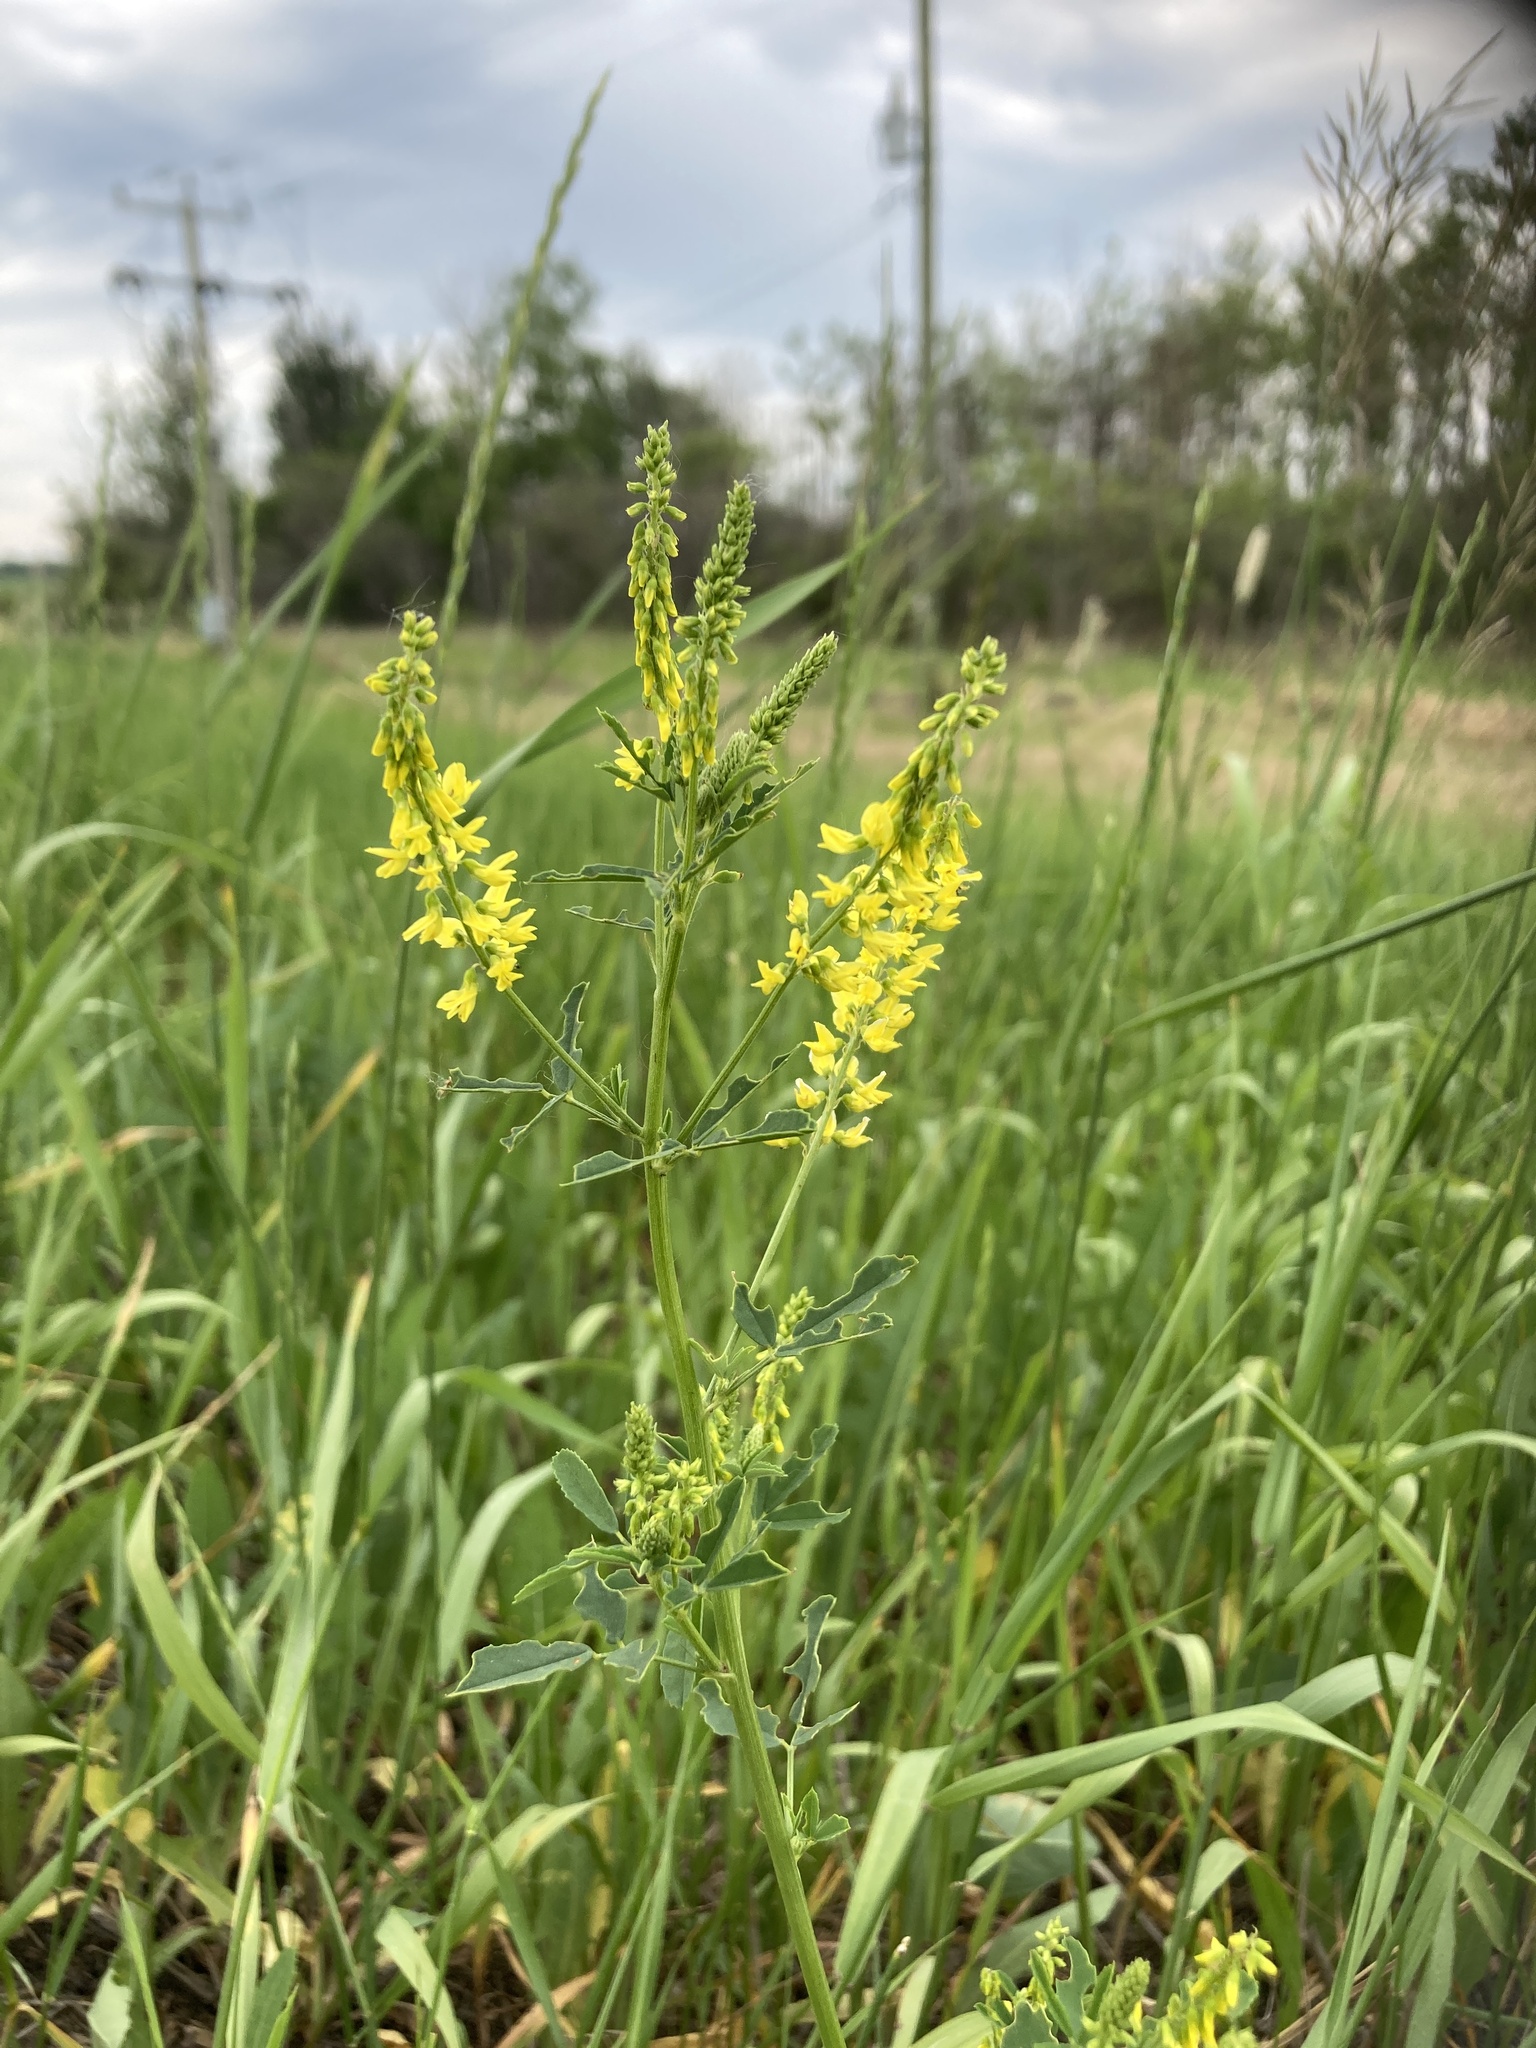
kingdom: Plantae
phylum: Tracheophyta
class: Magnoliopsida
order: Fabales
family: Fabaceae
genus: Melilotus
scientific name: Melilotus officinalis
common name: Sweetclover
